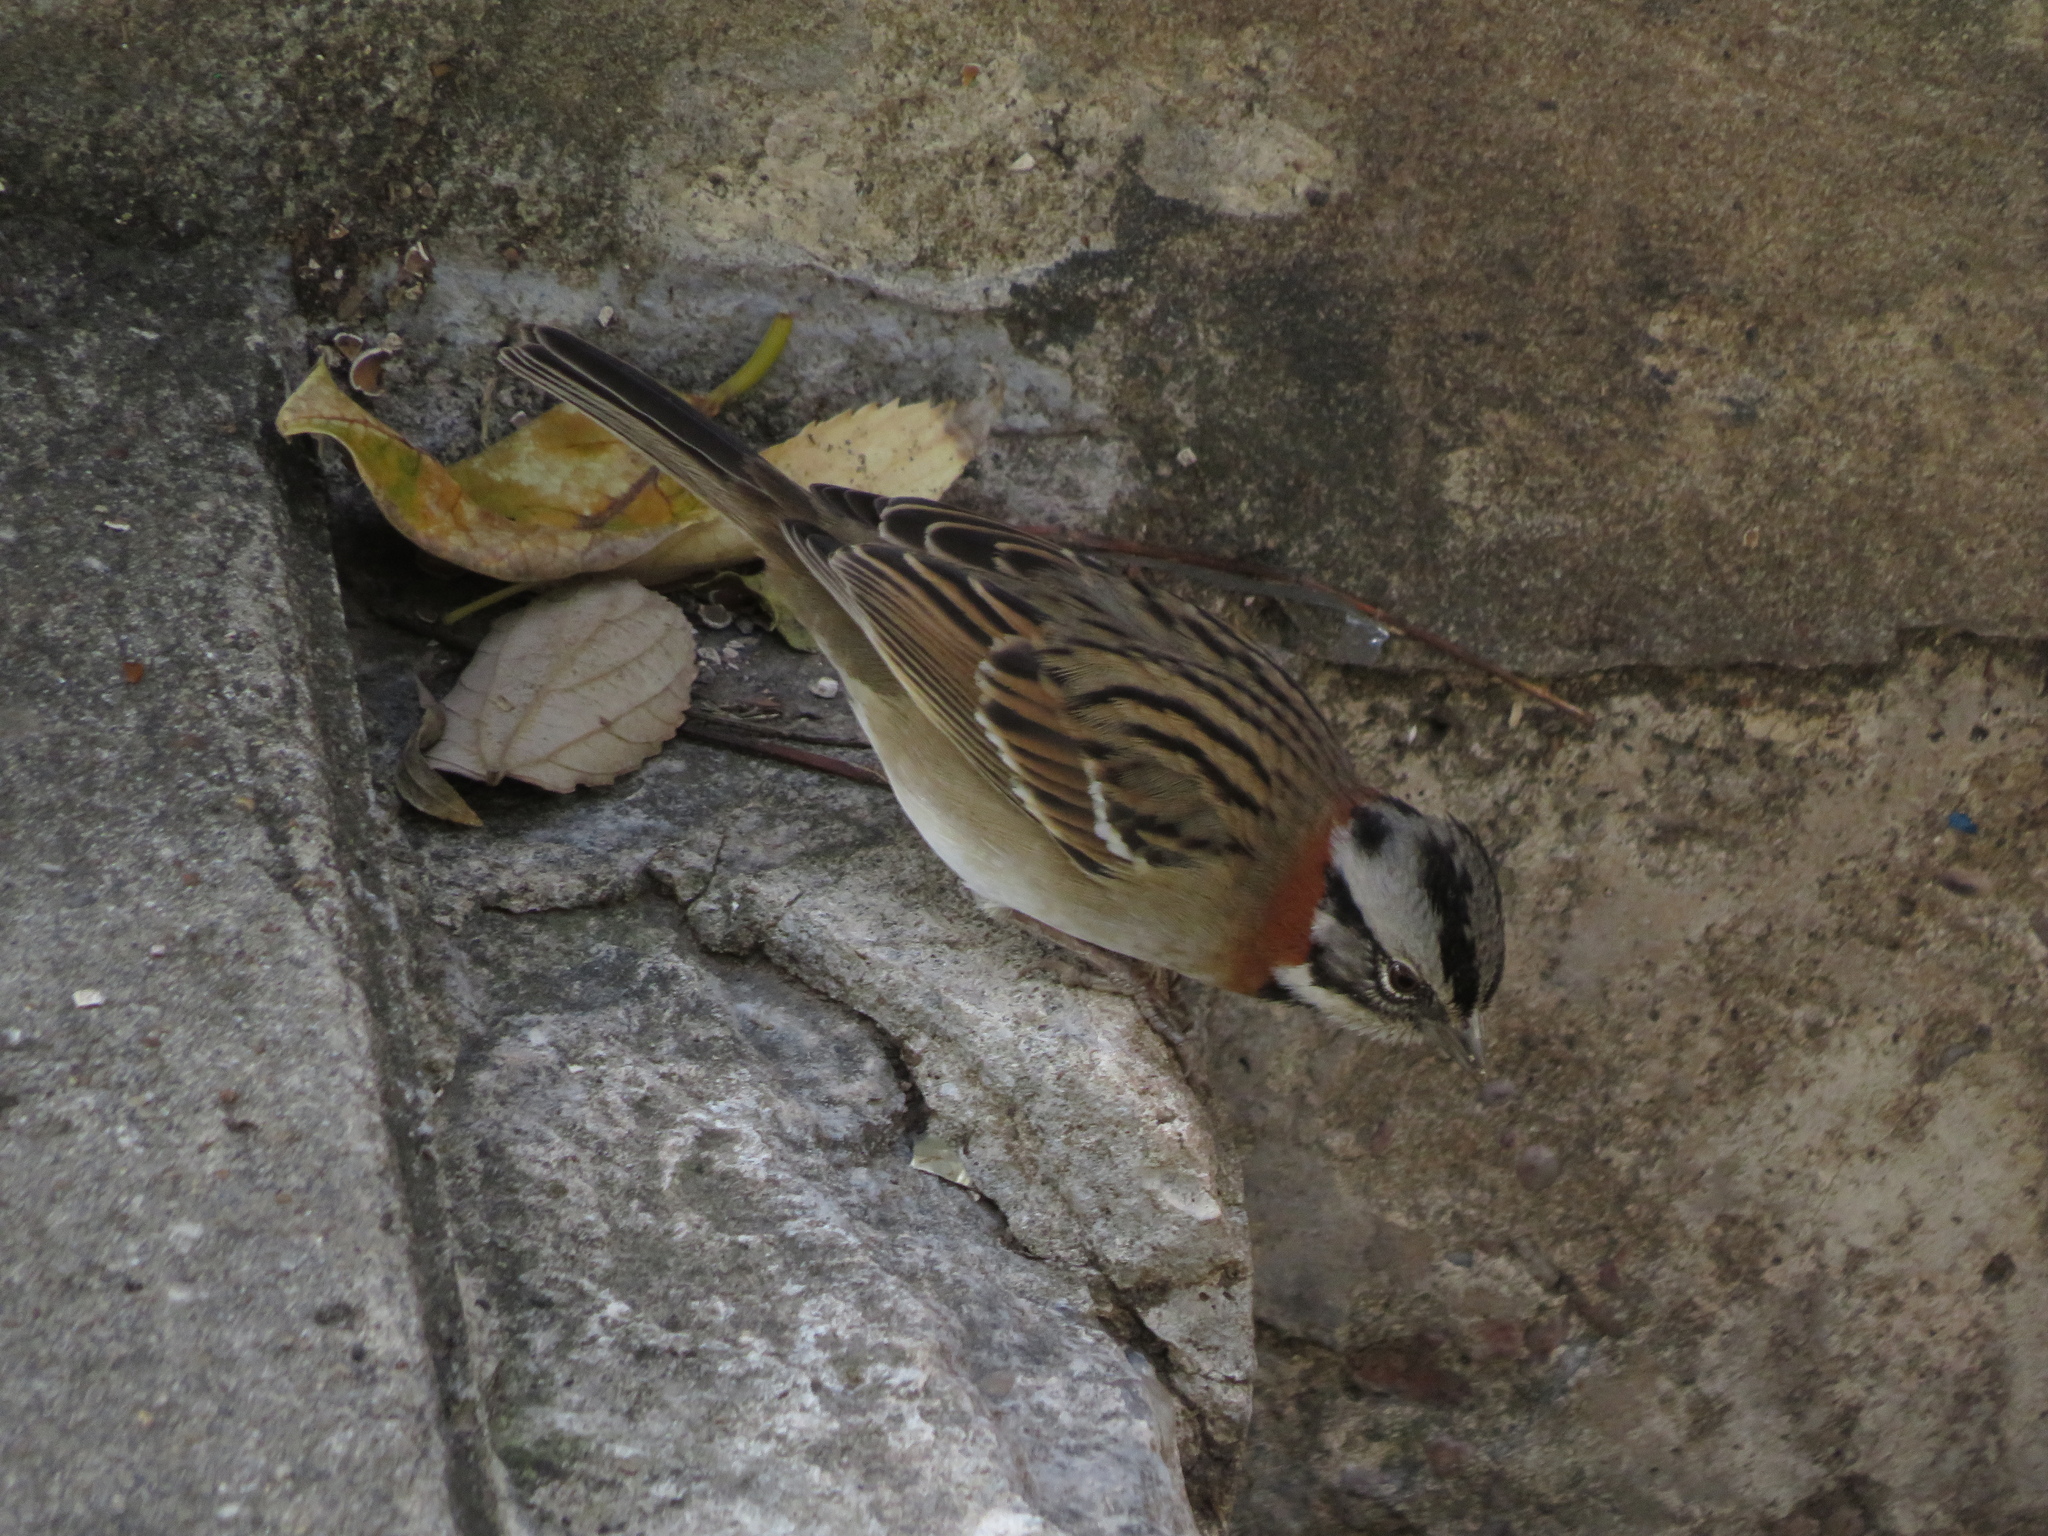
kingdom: Animalia
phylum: Chordata
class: Aves
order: Passeriformes
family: Passerellidae
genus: Zonotrichia
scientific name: Zonotrichia capensis
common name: Rufous-collared sparrow
